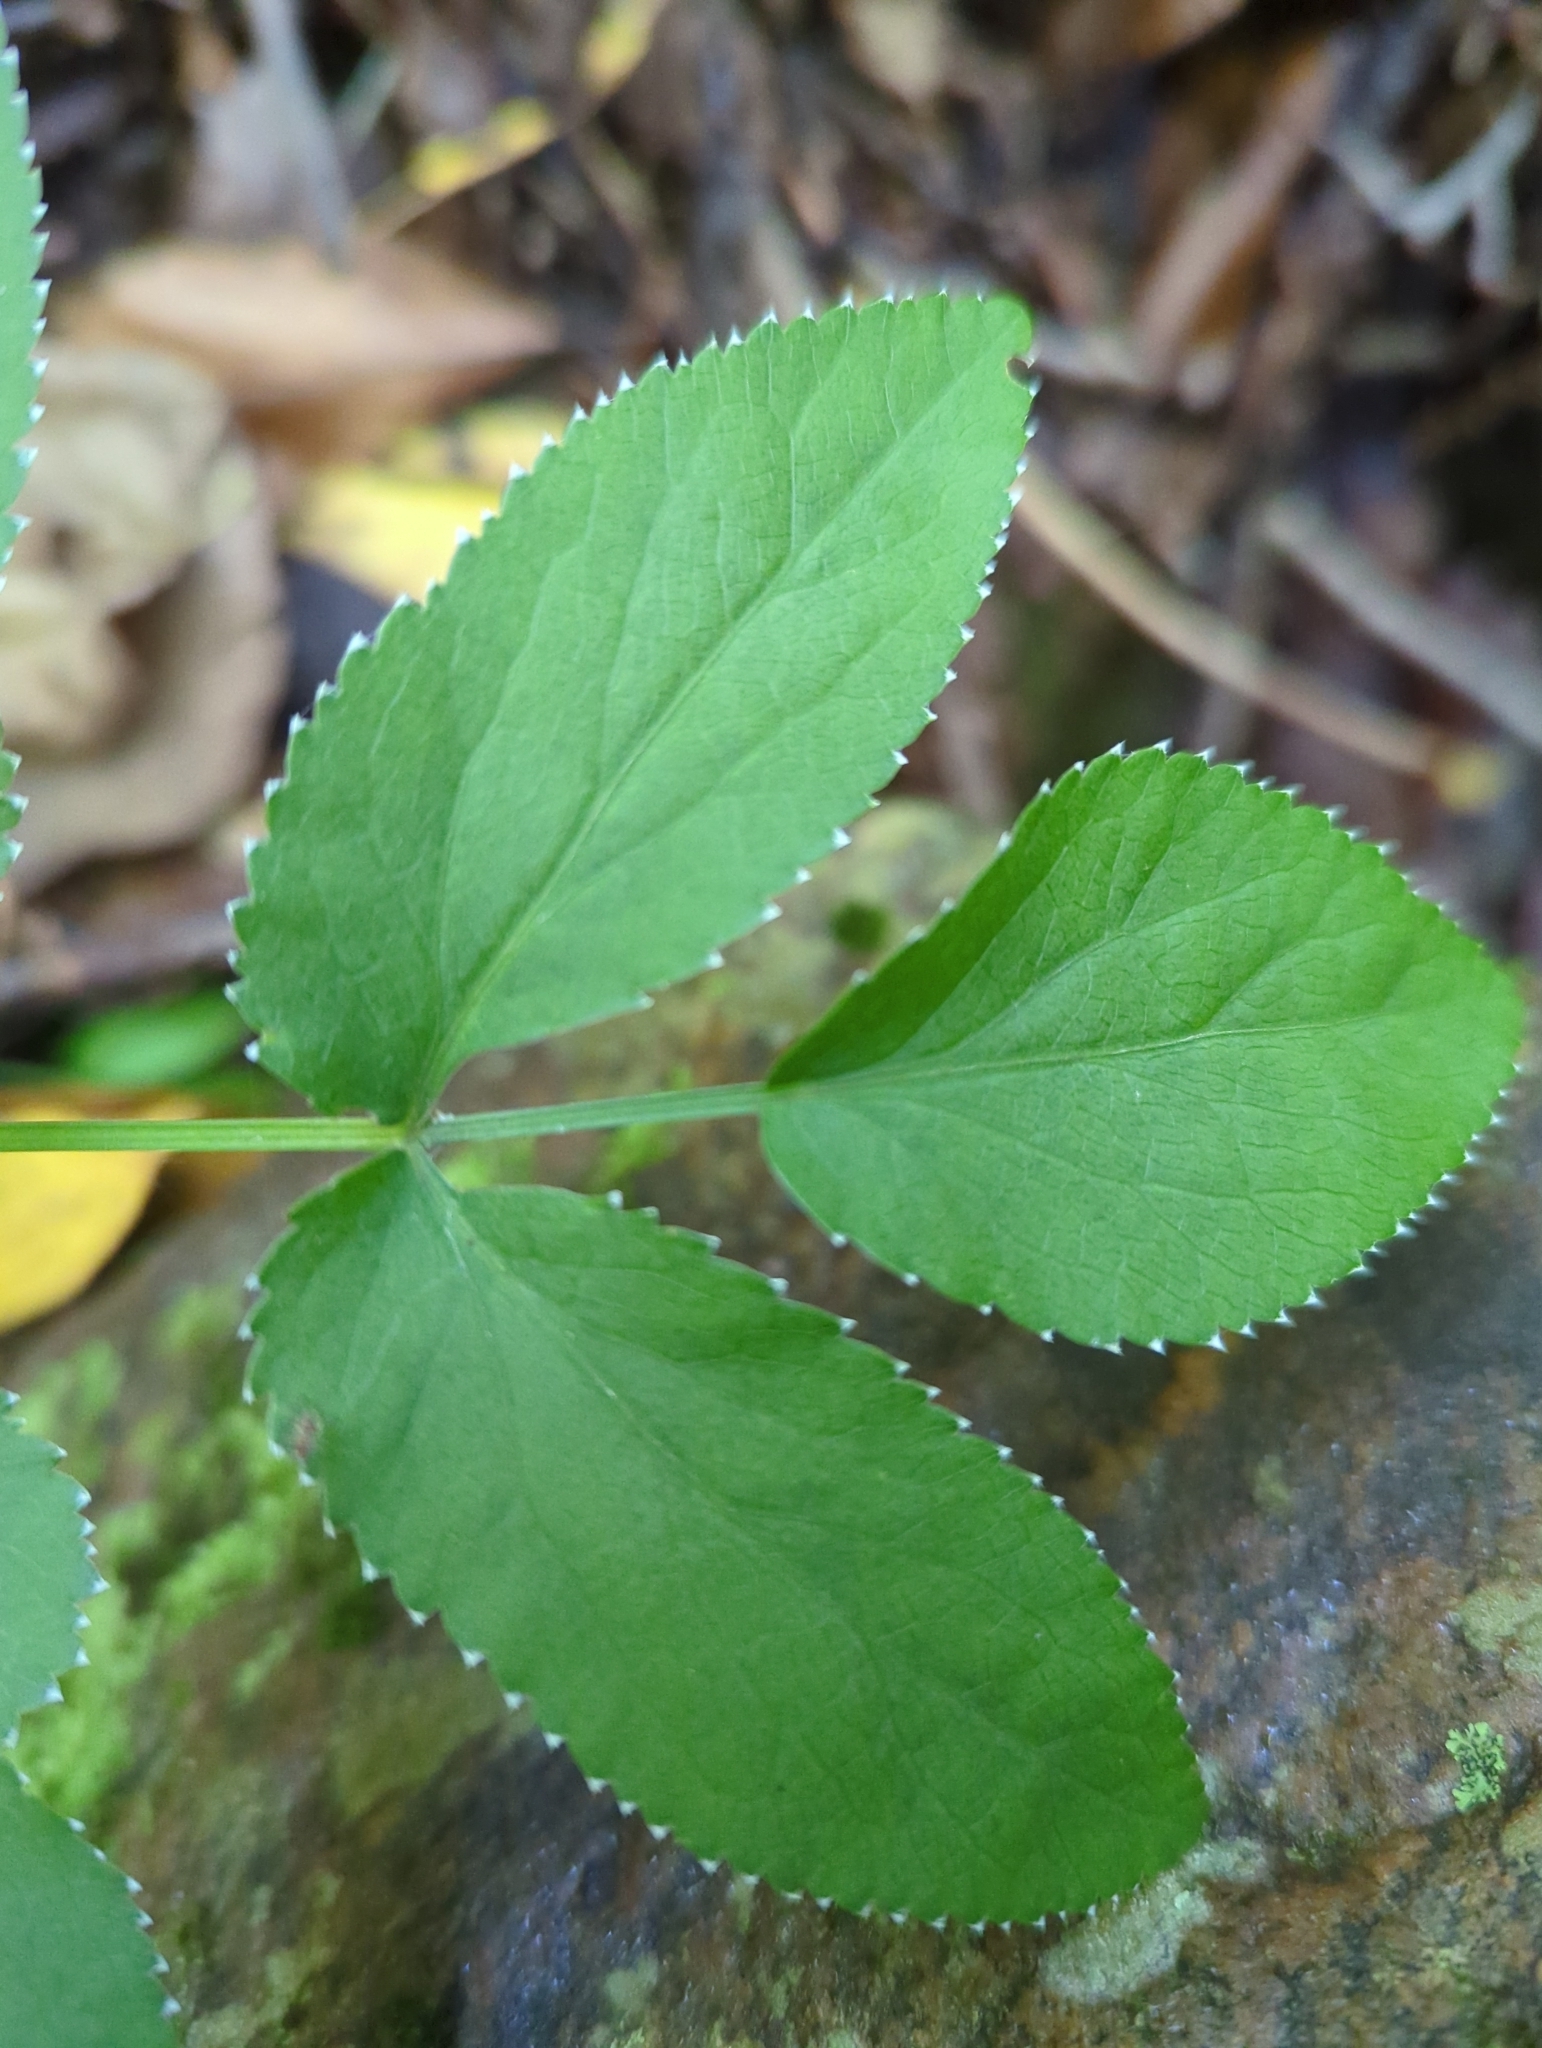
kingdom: Plantae
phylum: Tracheophyta
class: Magnoliopsida
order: Apiales
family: Apiaceae
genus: Zizia
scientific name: Zizia aurea
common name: Golden alexanders
